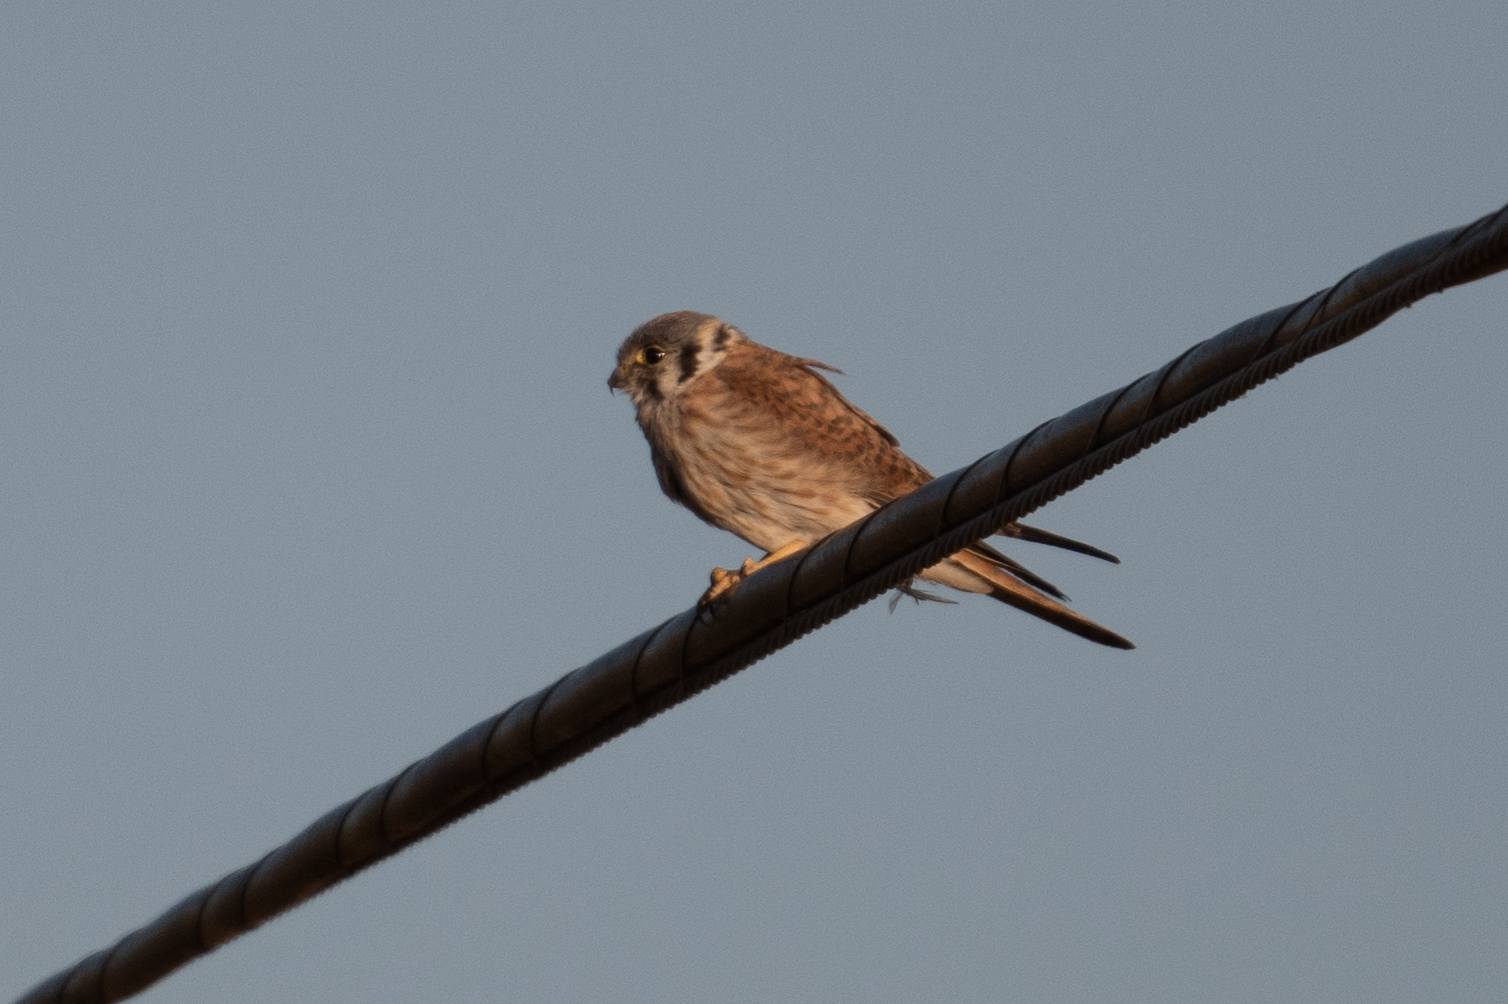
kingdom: Animalia
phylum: Chordata
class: Aves
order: Falconiformes
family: Falconidae
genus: Falco
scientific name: Falco sparverius
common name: American kestrel
